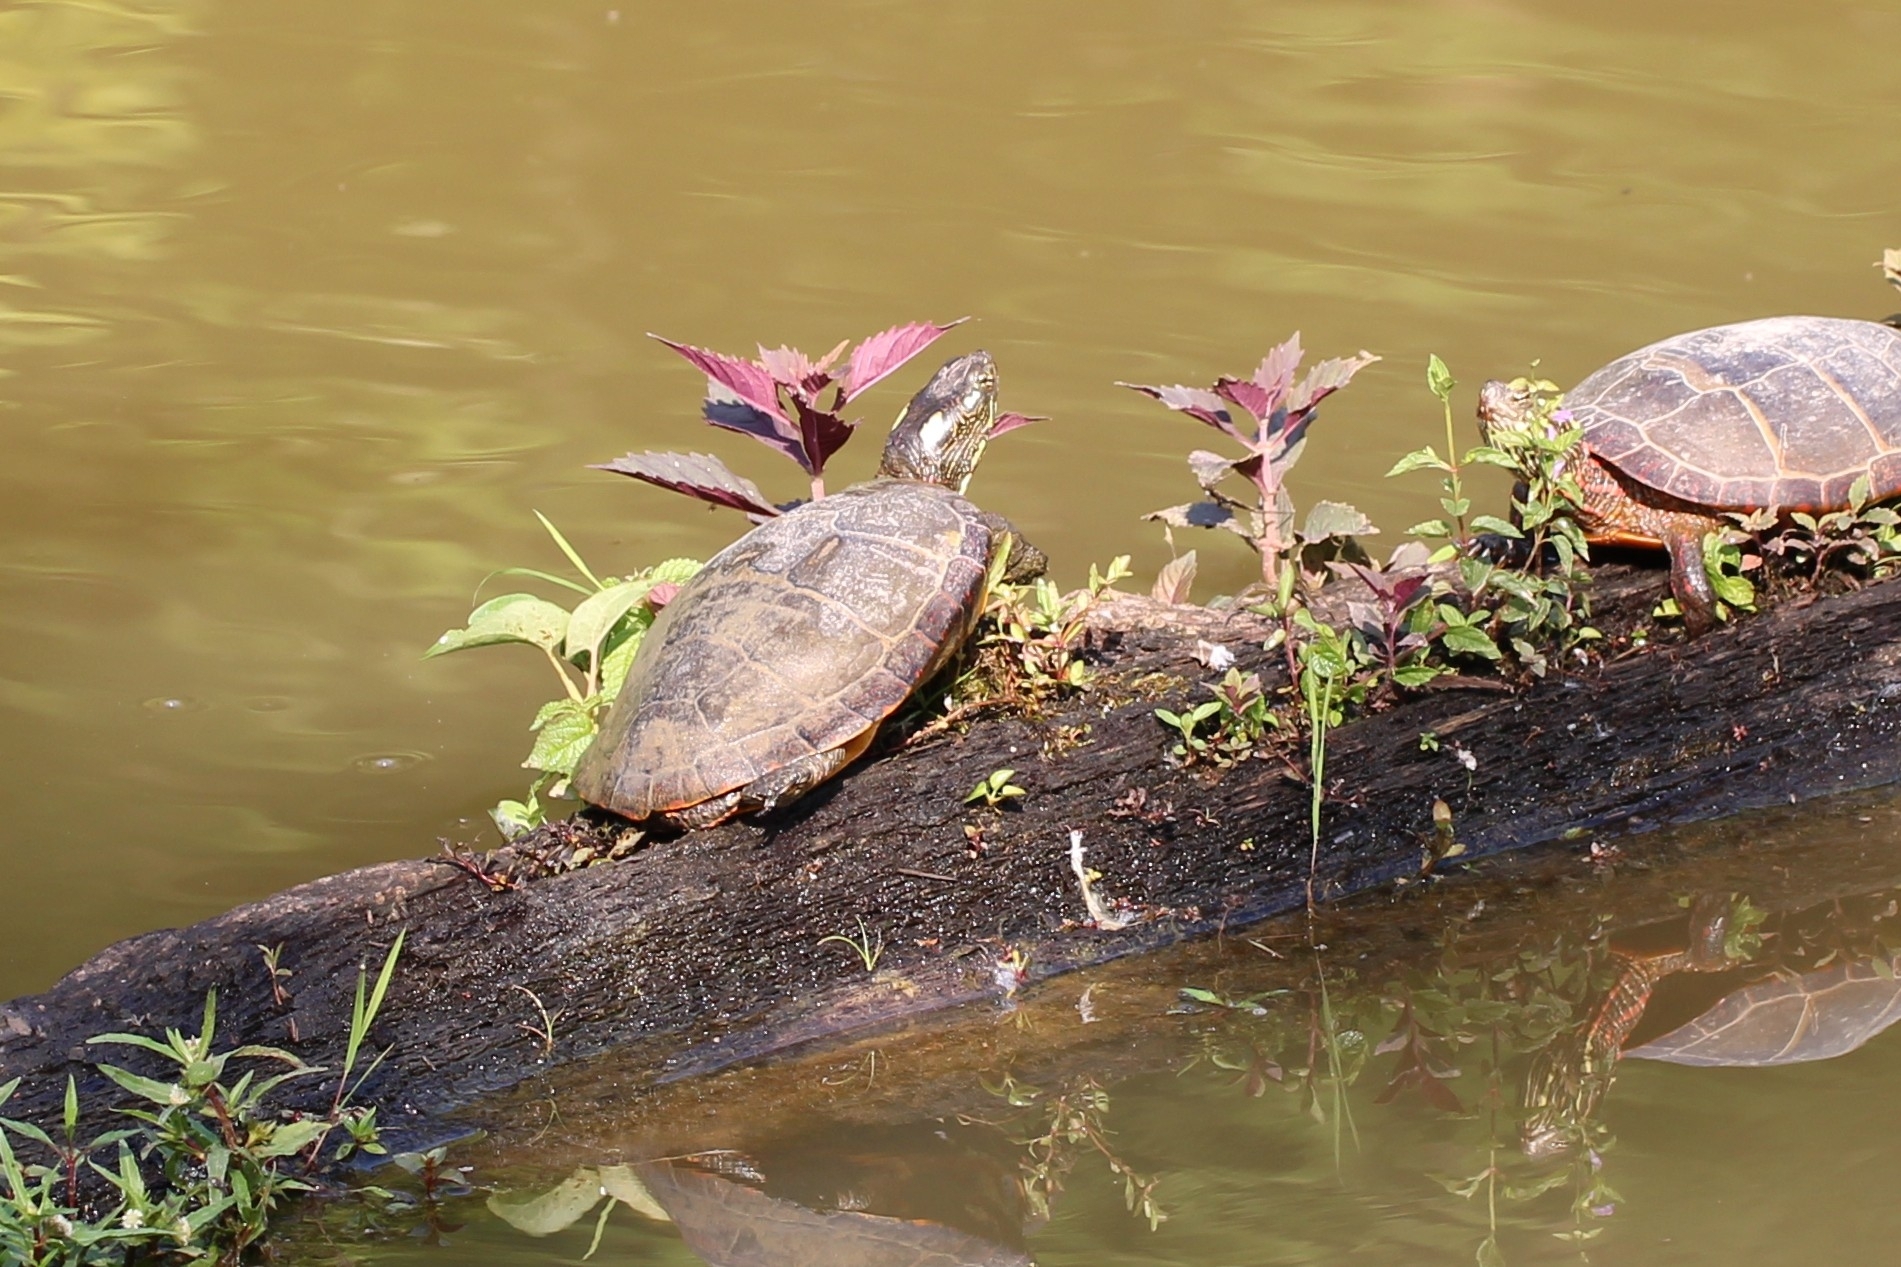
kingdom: Animalia
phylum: Chordata
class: Testudines
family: Emydidae
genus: Chrysemys
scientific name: Chrysemys picta
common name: Painted turtle
